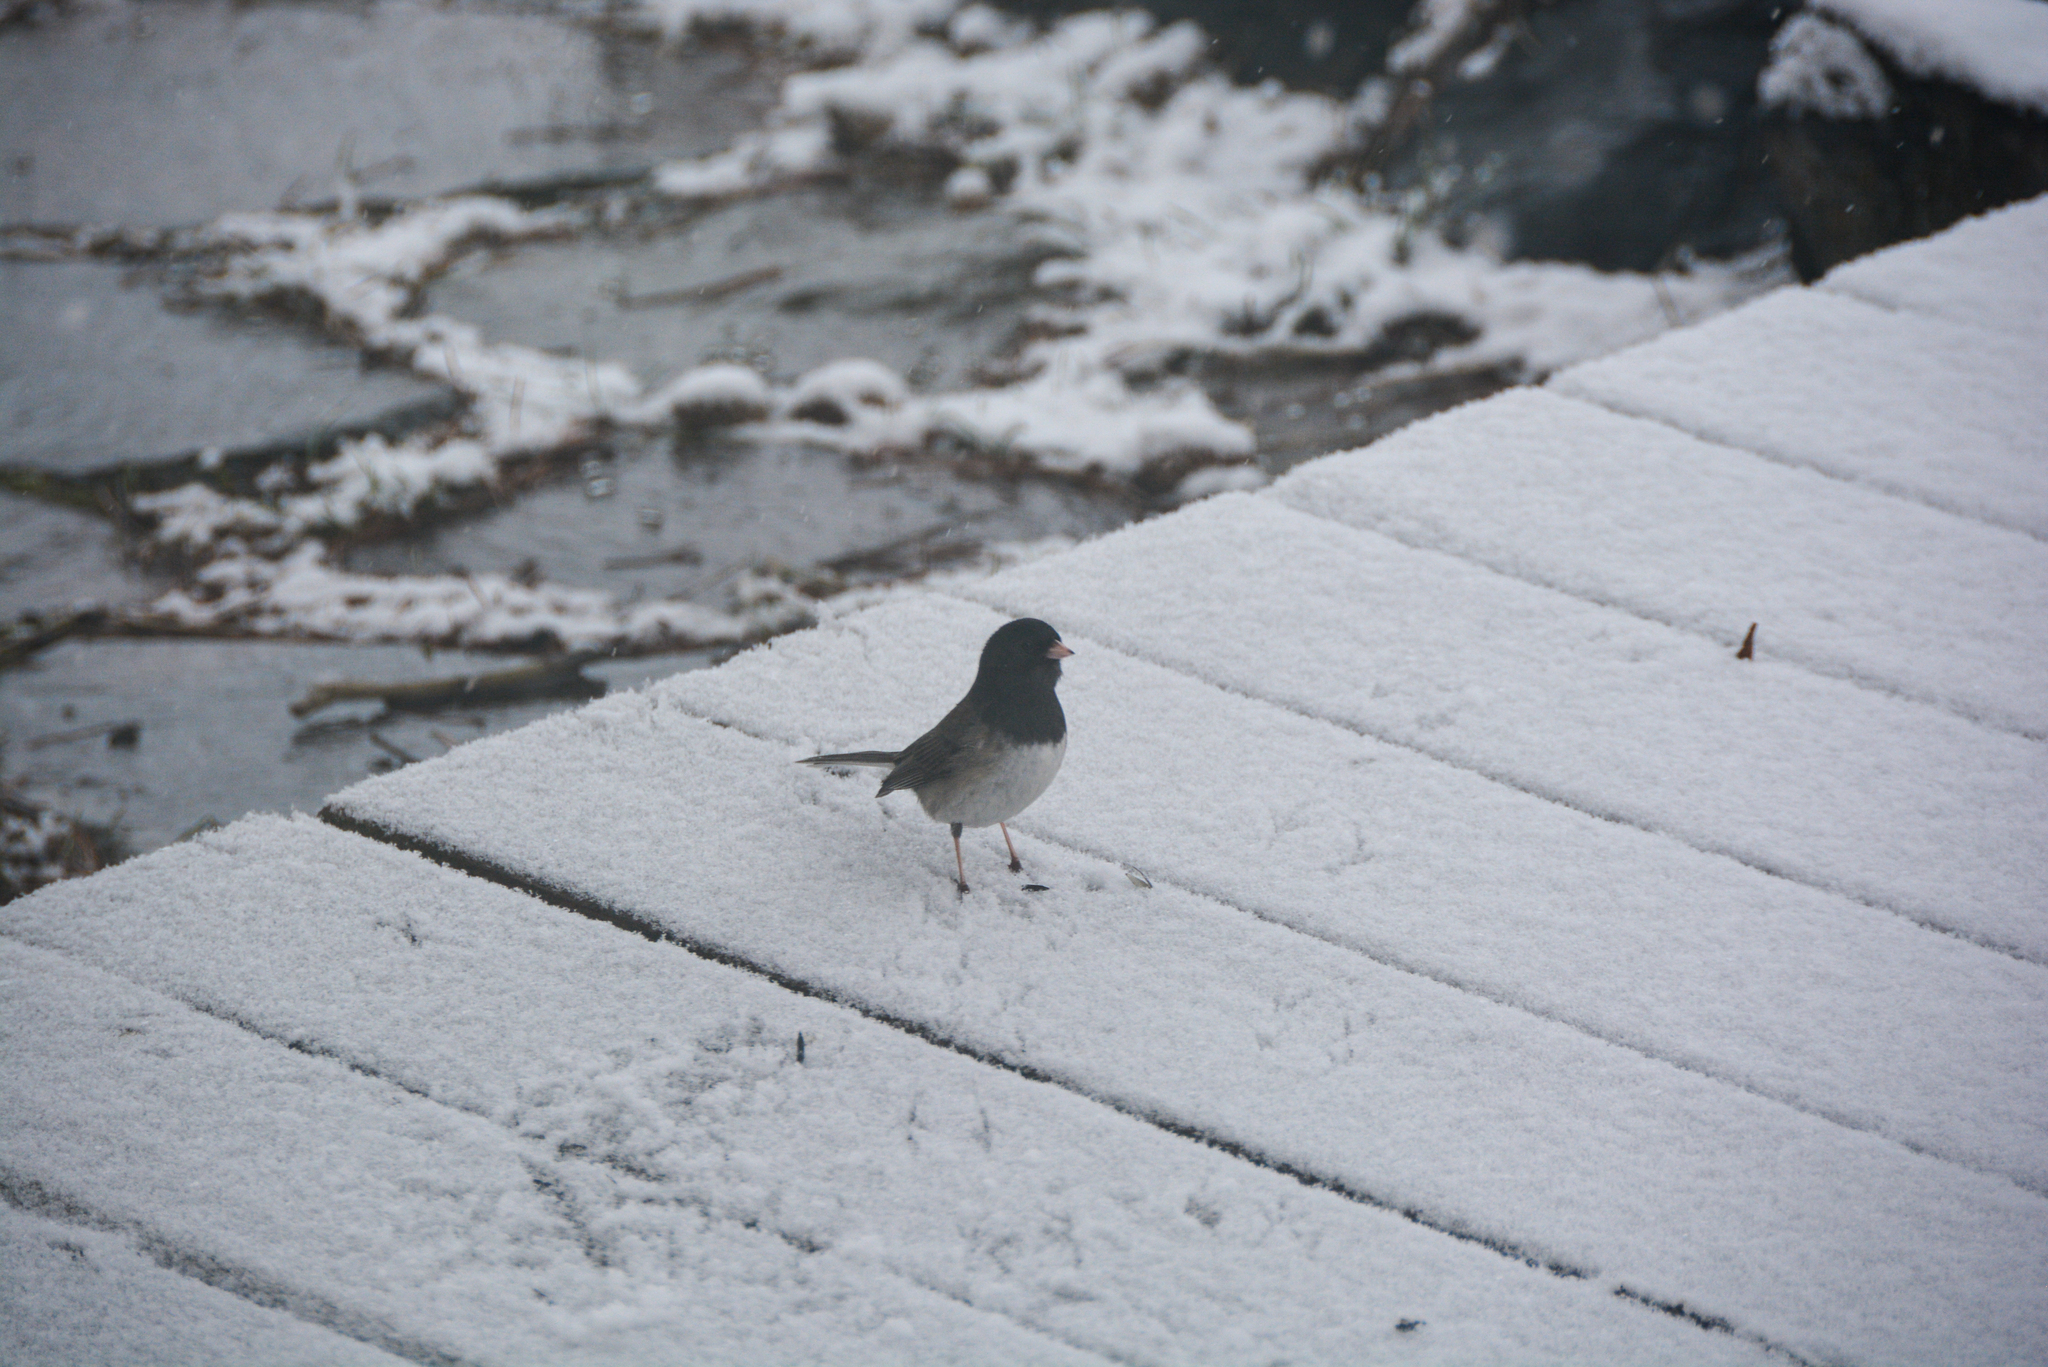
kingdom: Animalia
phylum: Chordata
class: Aves
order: Passeriformes
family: Passerellidae
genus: Junco
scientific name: Junco hyemalis
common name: Dark-eyed junco
